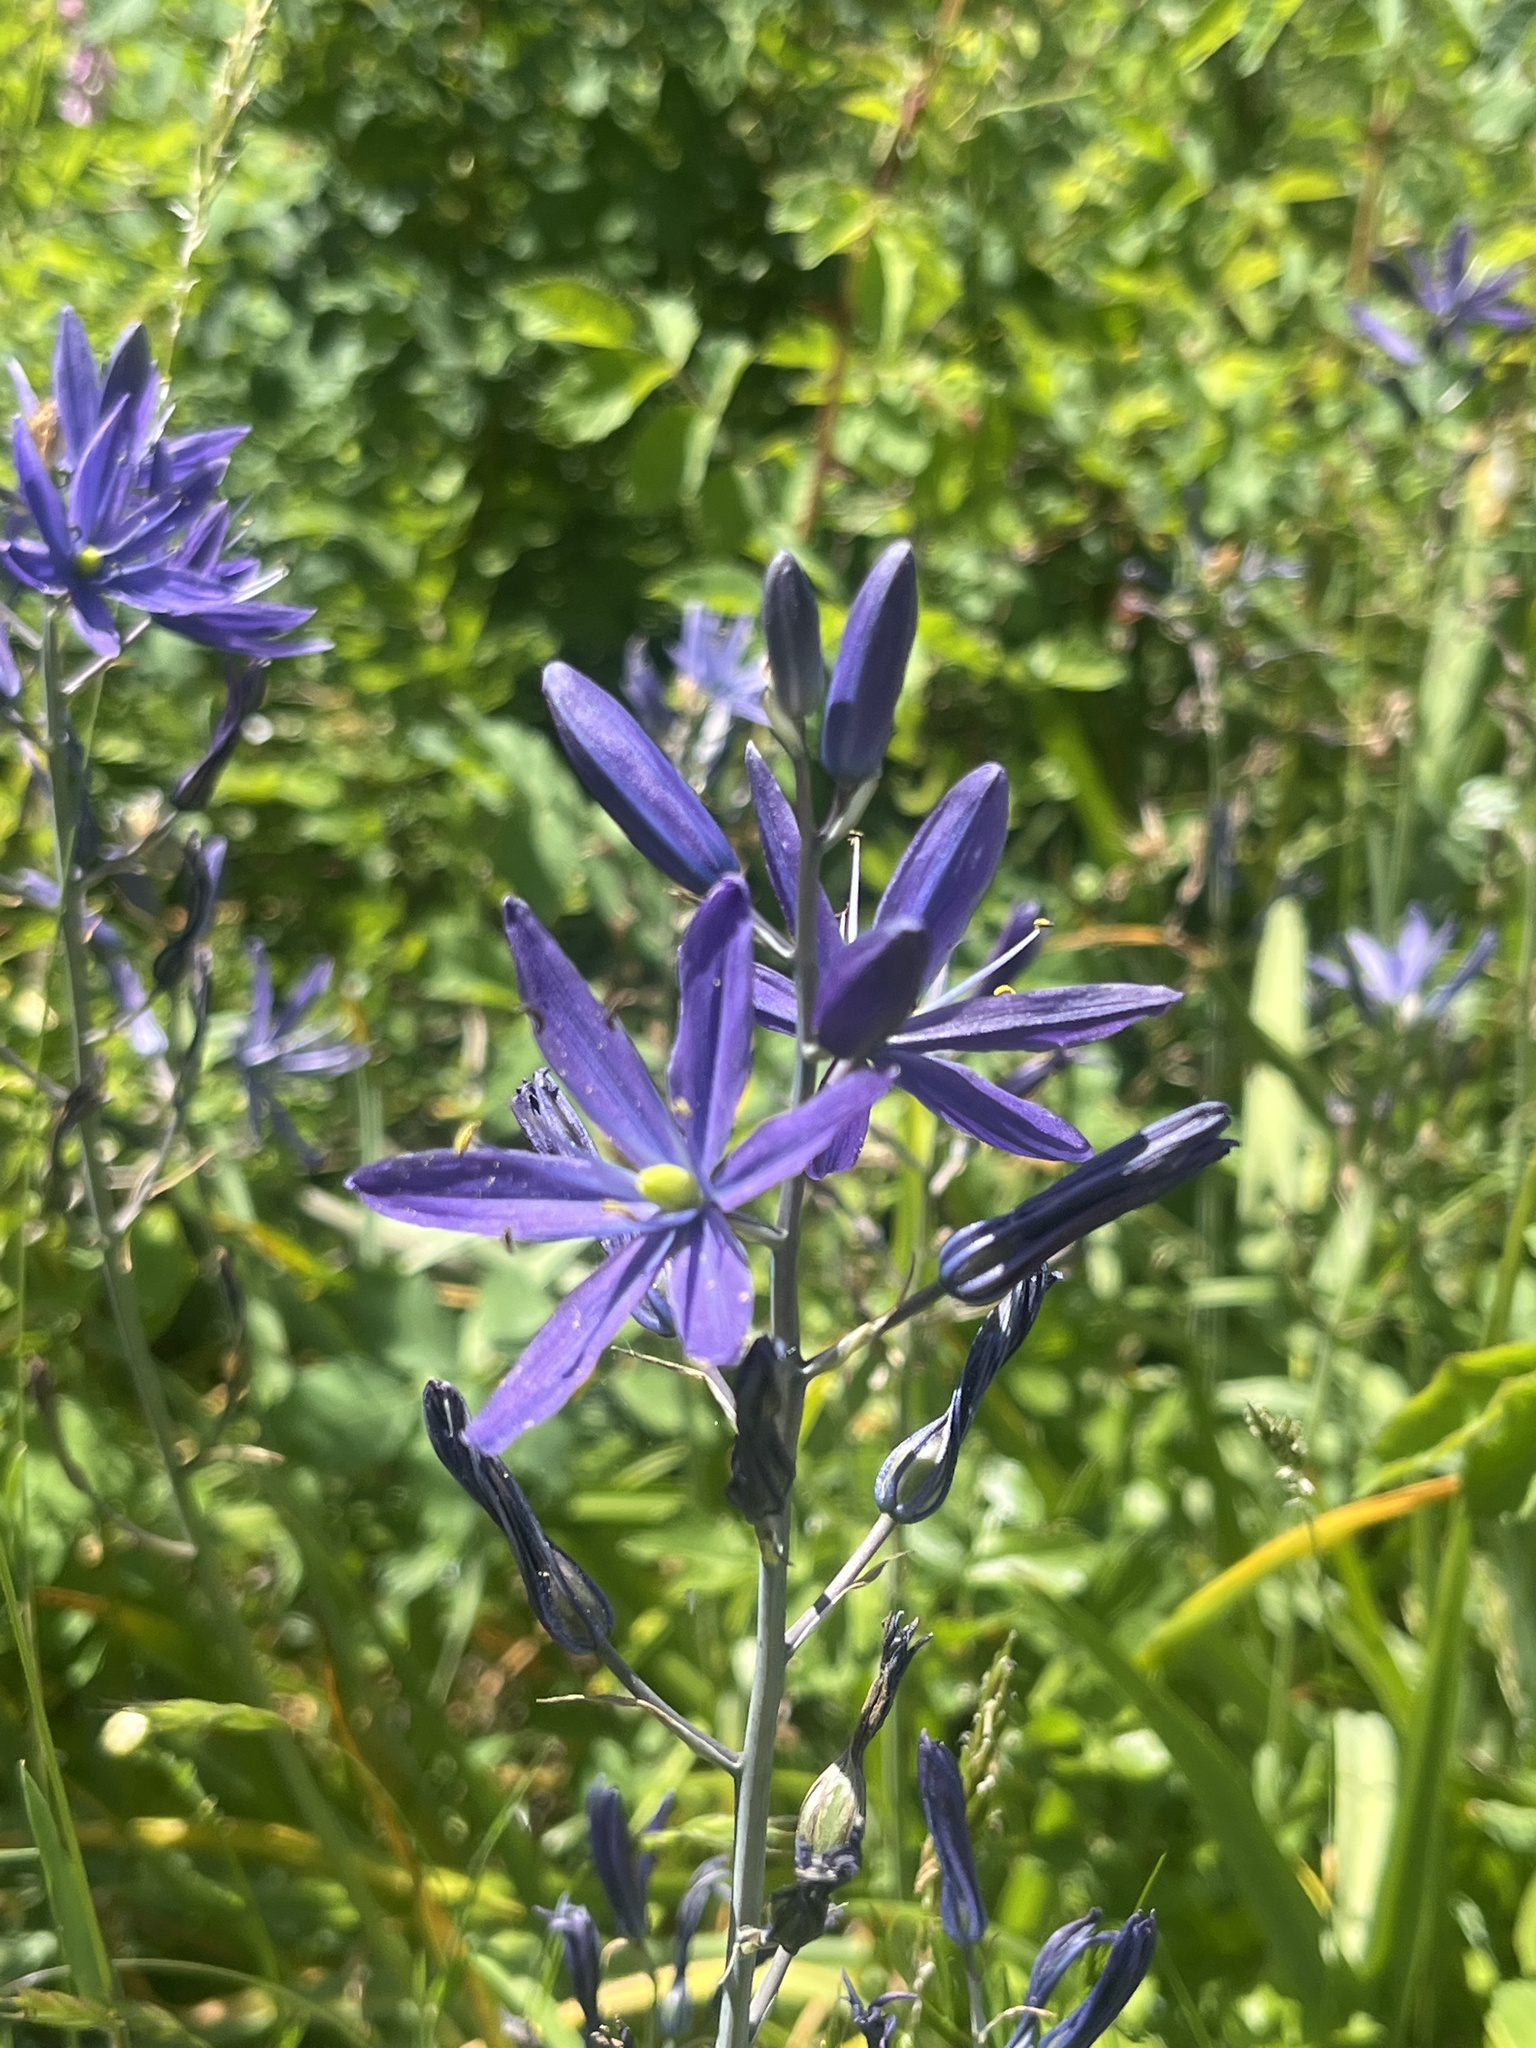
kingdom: Plantae
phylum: Tracheophyta
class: Liliopsida
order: Asparagales
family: Asparagaceae
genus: Camassia
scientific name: Camassia leichtlinii
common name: Leichtlin's camas
